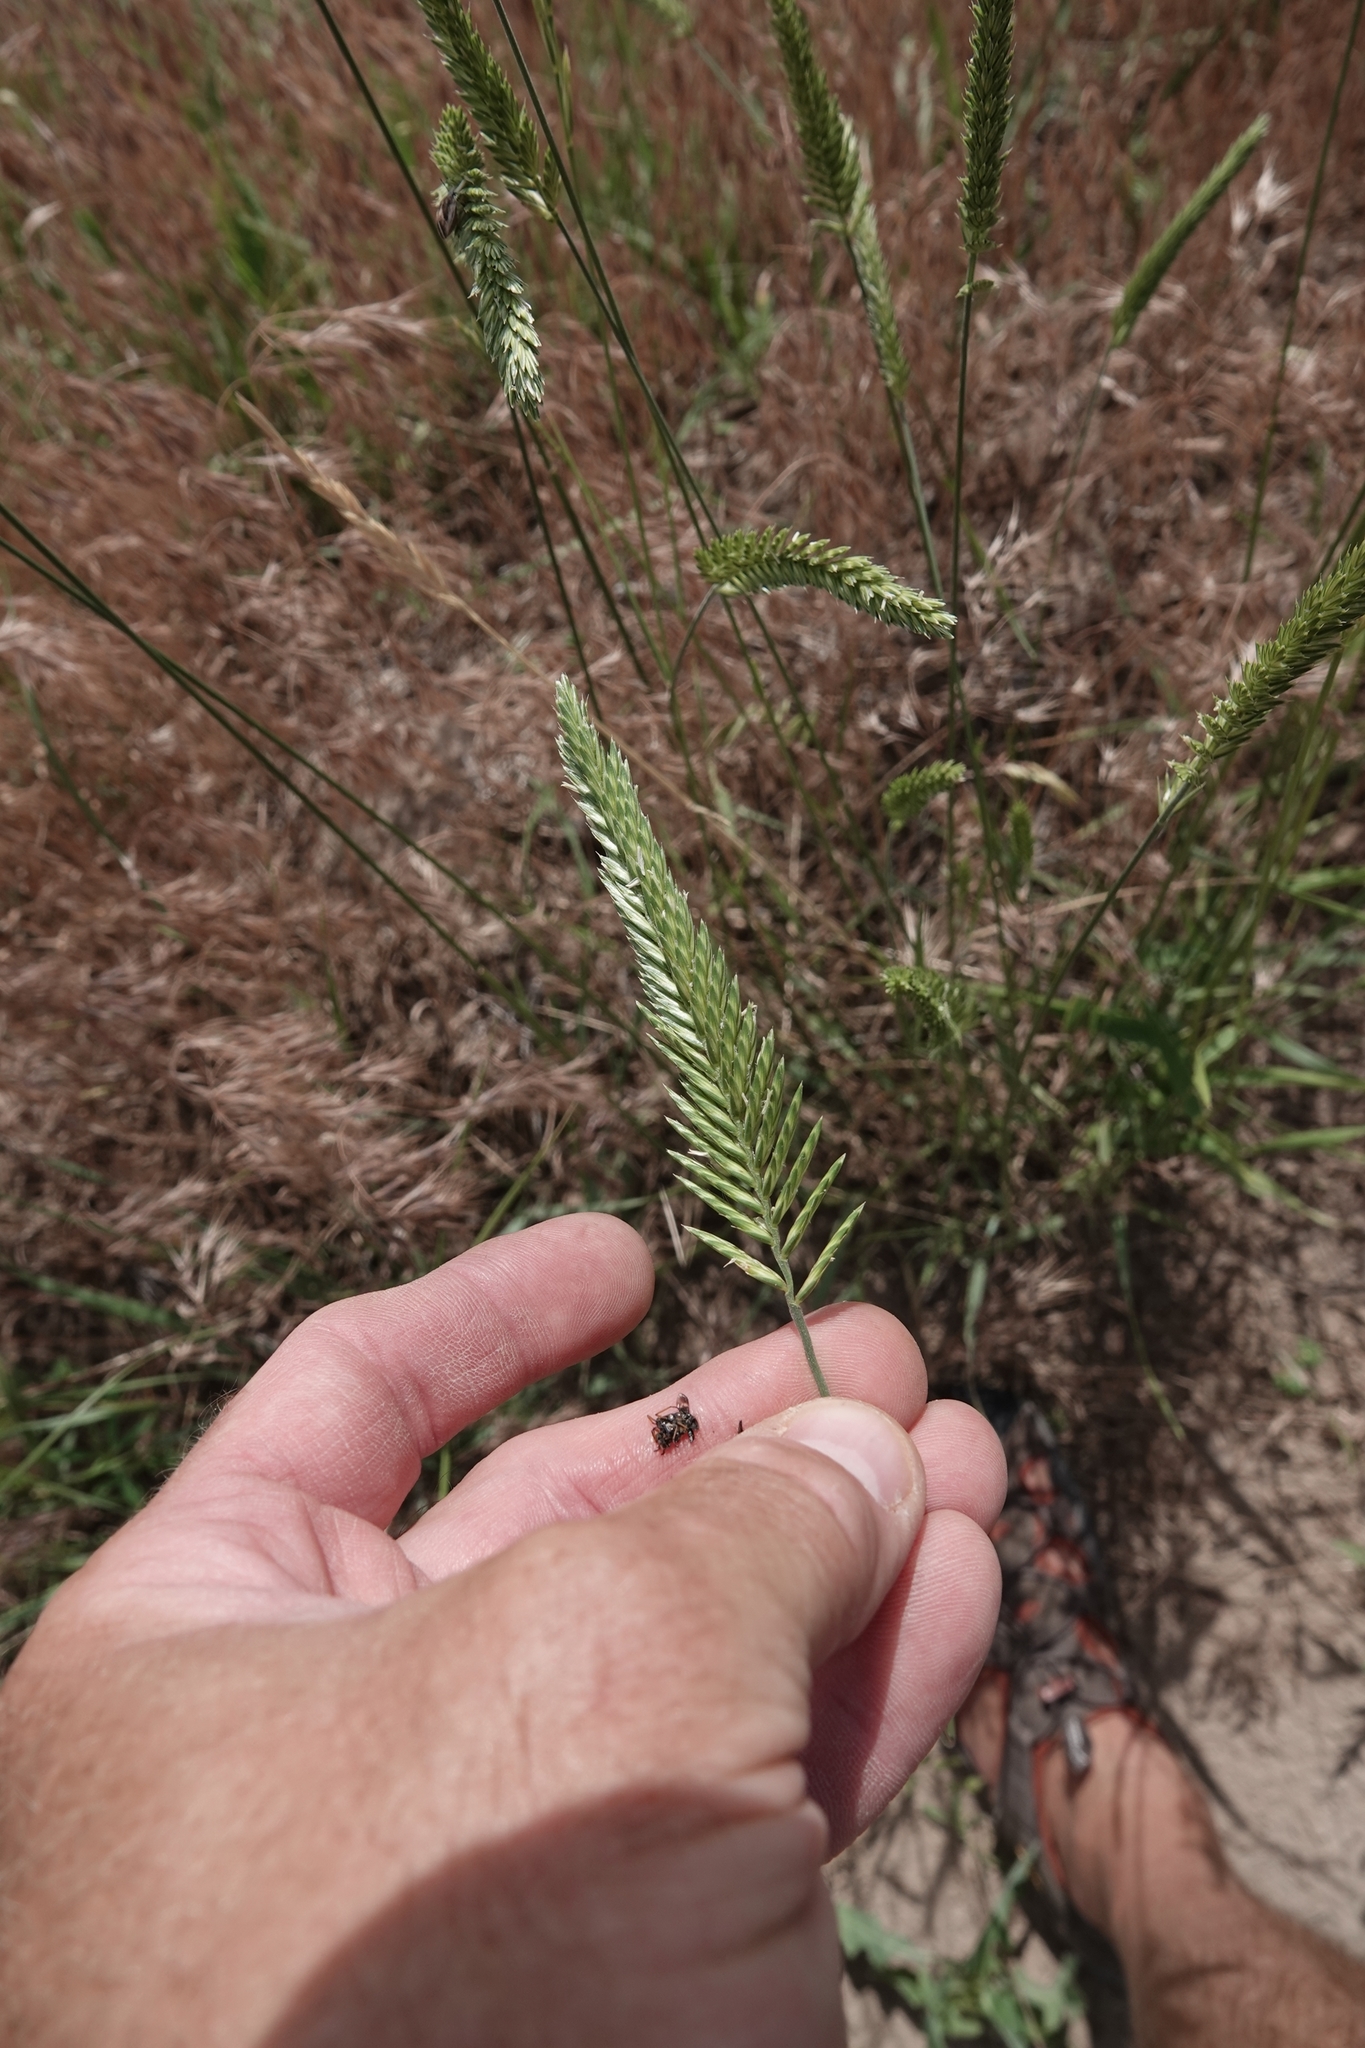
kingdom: Plantae
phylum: Tracheophyta
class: Liliopsida
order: Poales
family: Poaceae
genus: Agropyron
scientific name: Agropyron cristatum
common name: Crested wheatgrass
